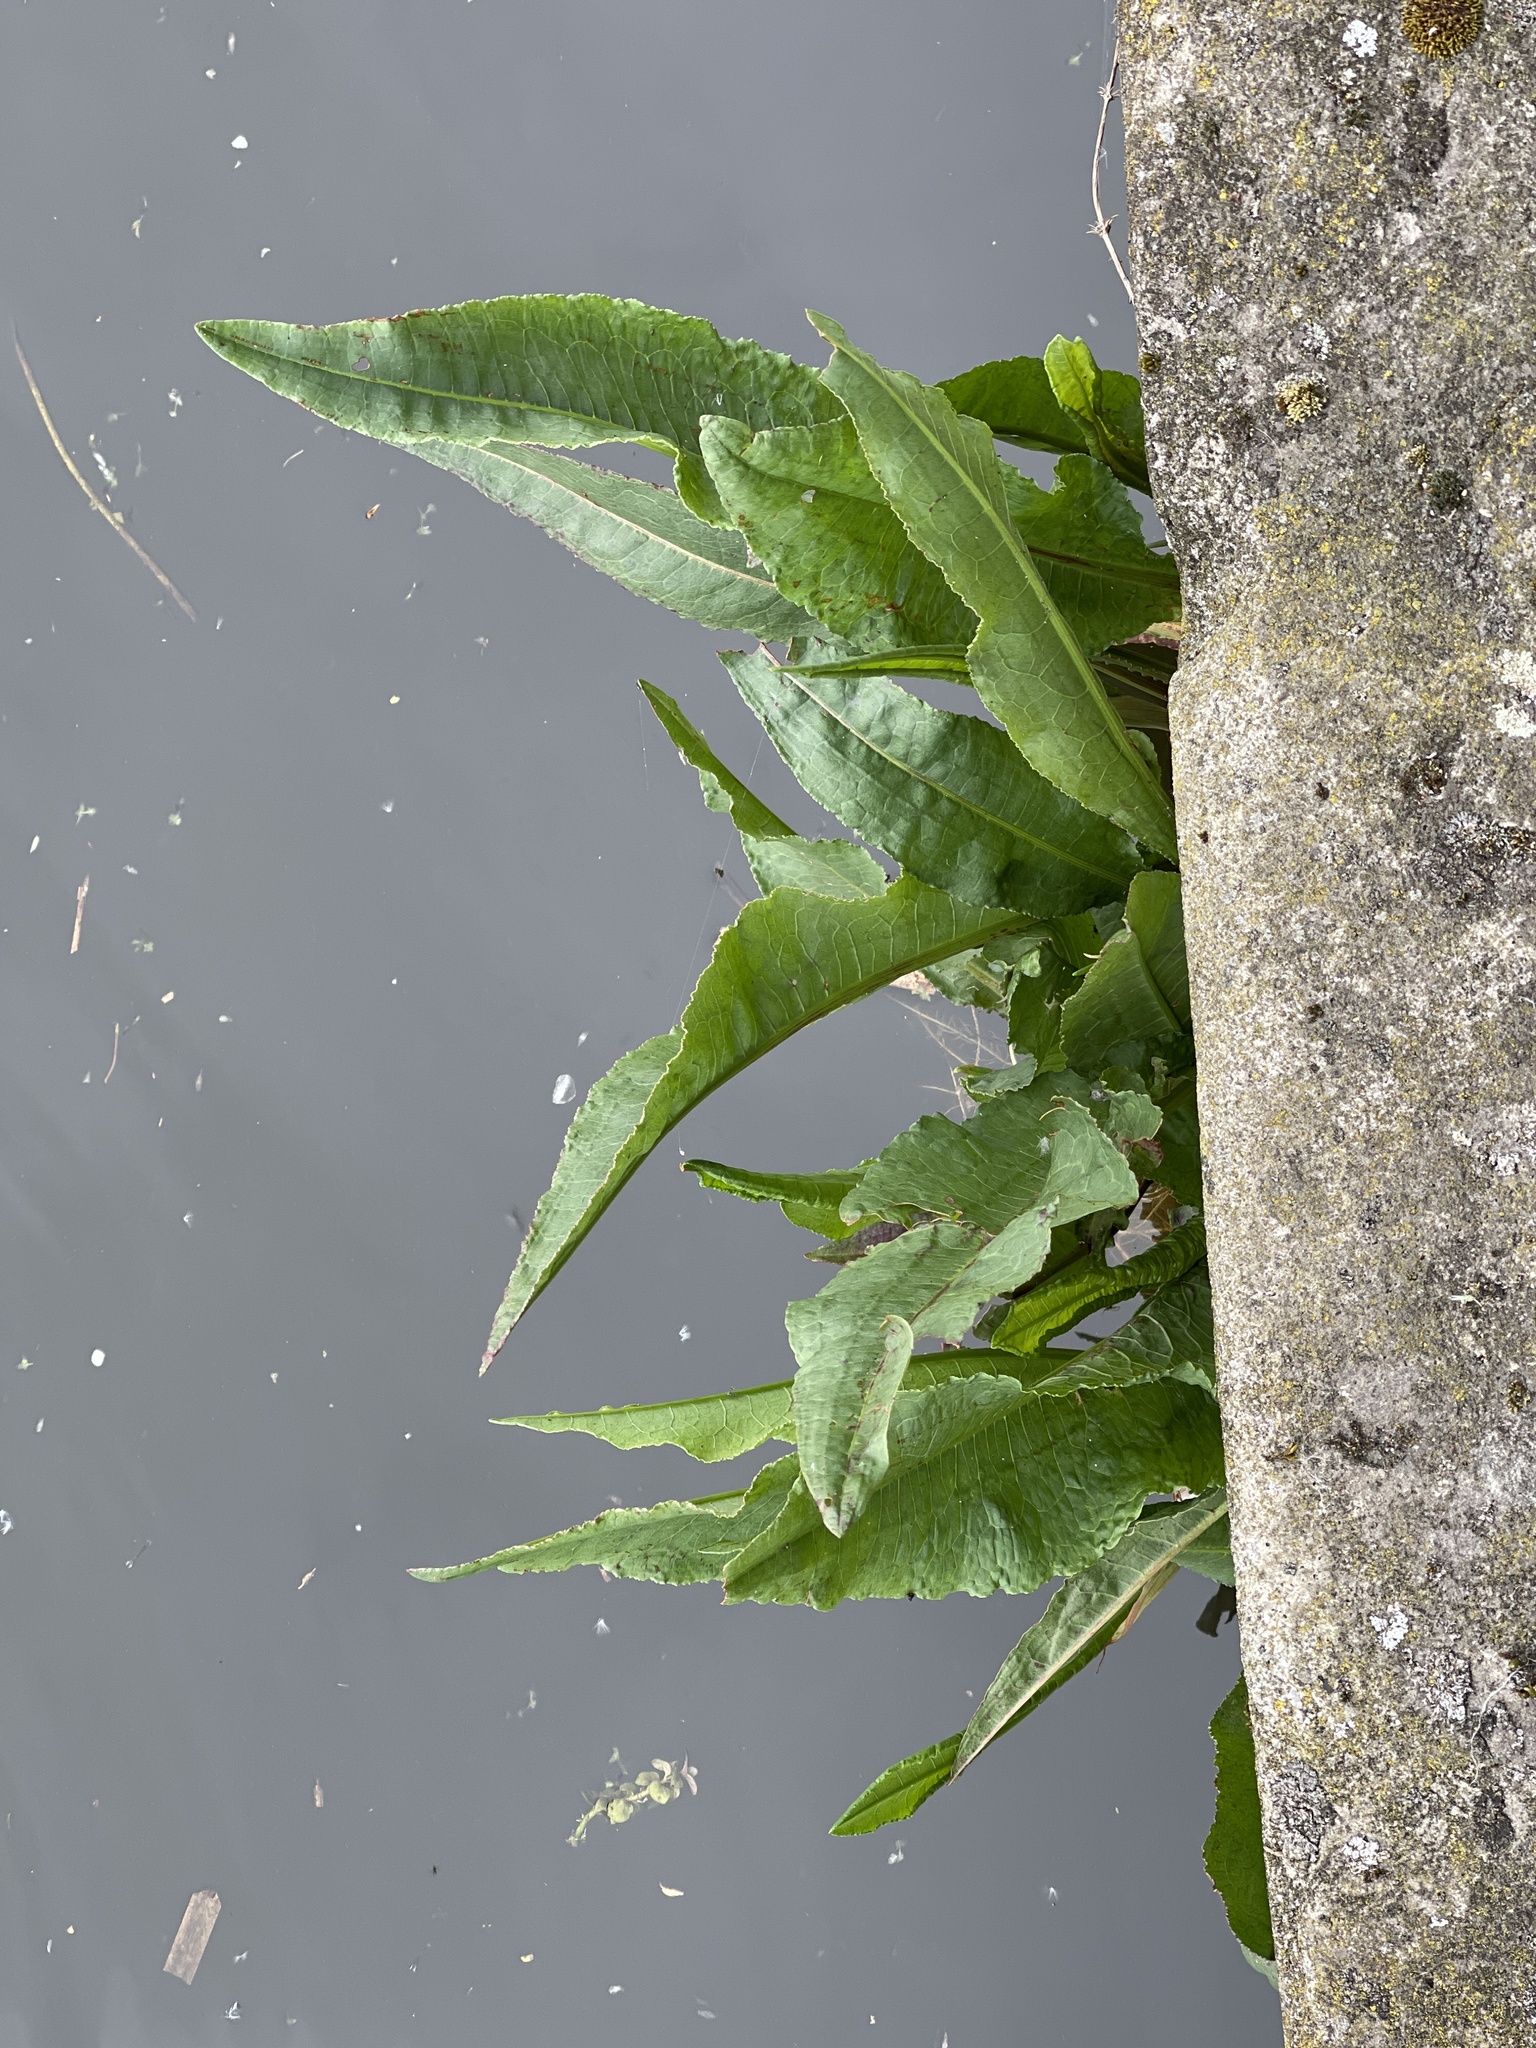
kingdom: Plantae
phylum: Tracheophyta
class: Magnoliopsida
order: Caryophyllales
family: Polygonaceae
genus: Rumex
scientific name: Rumex hydrolapathum
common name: Water dock
